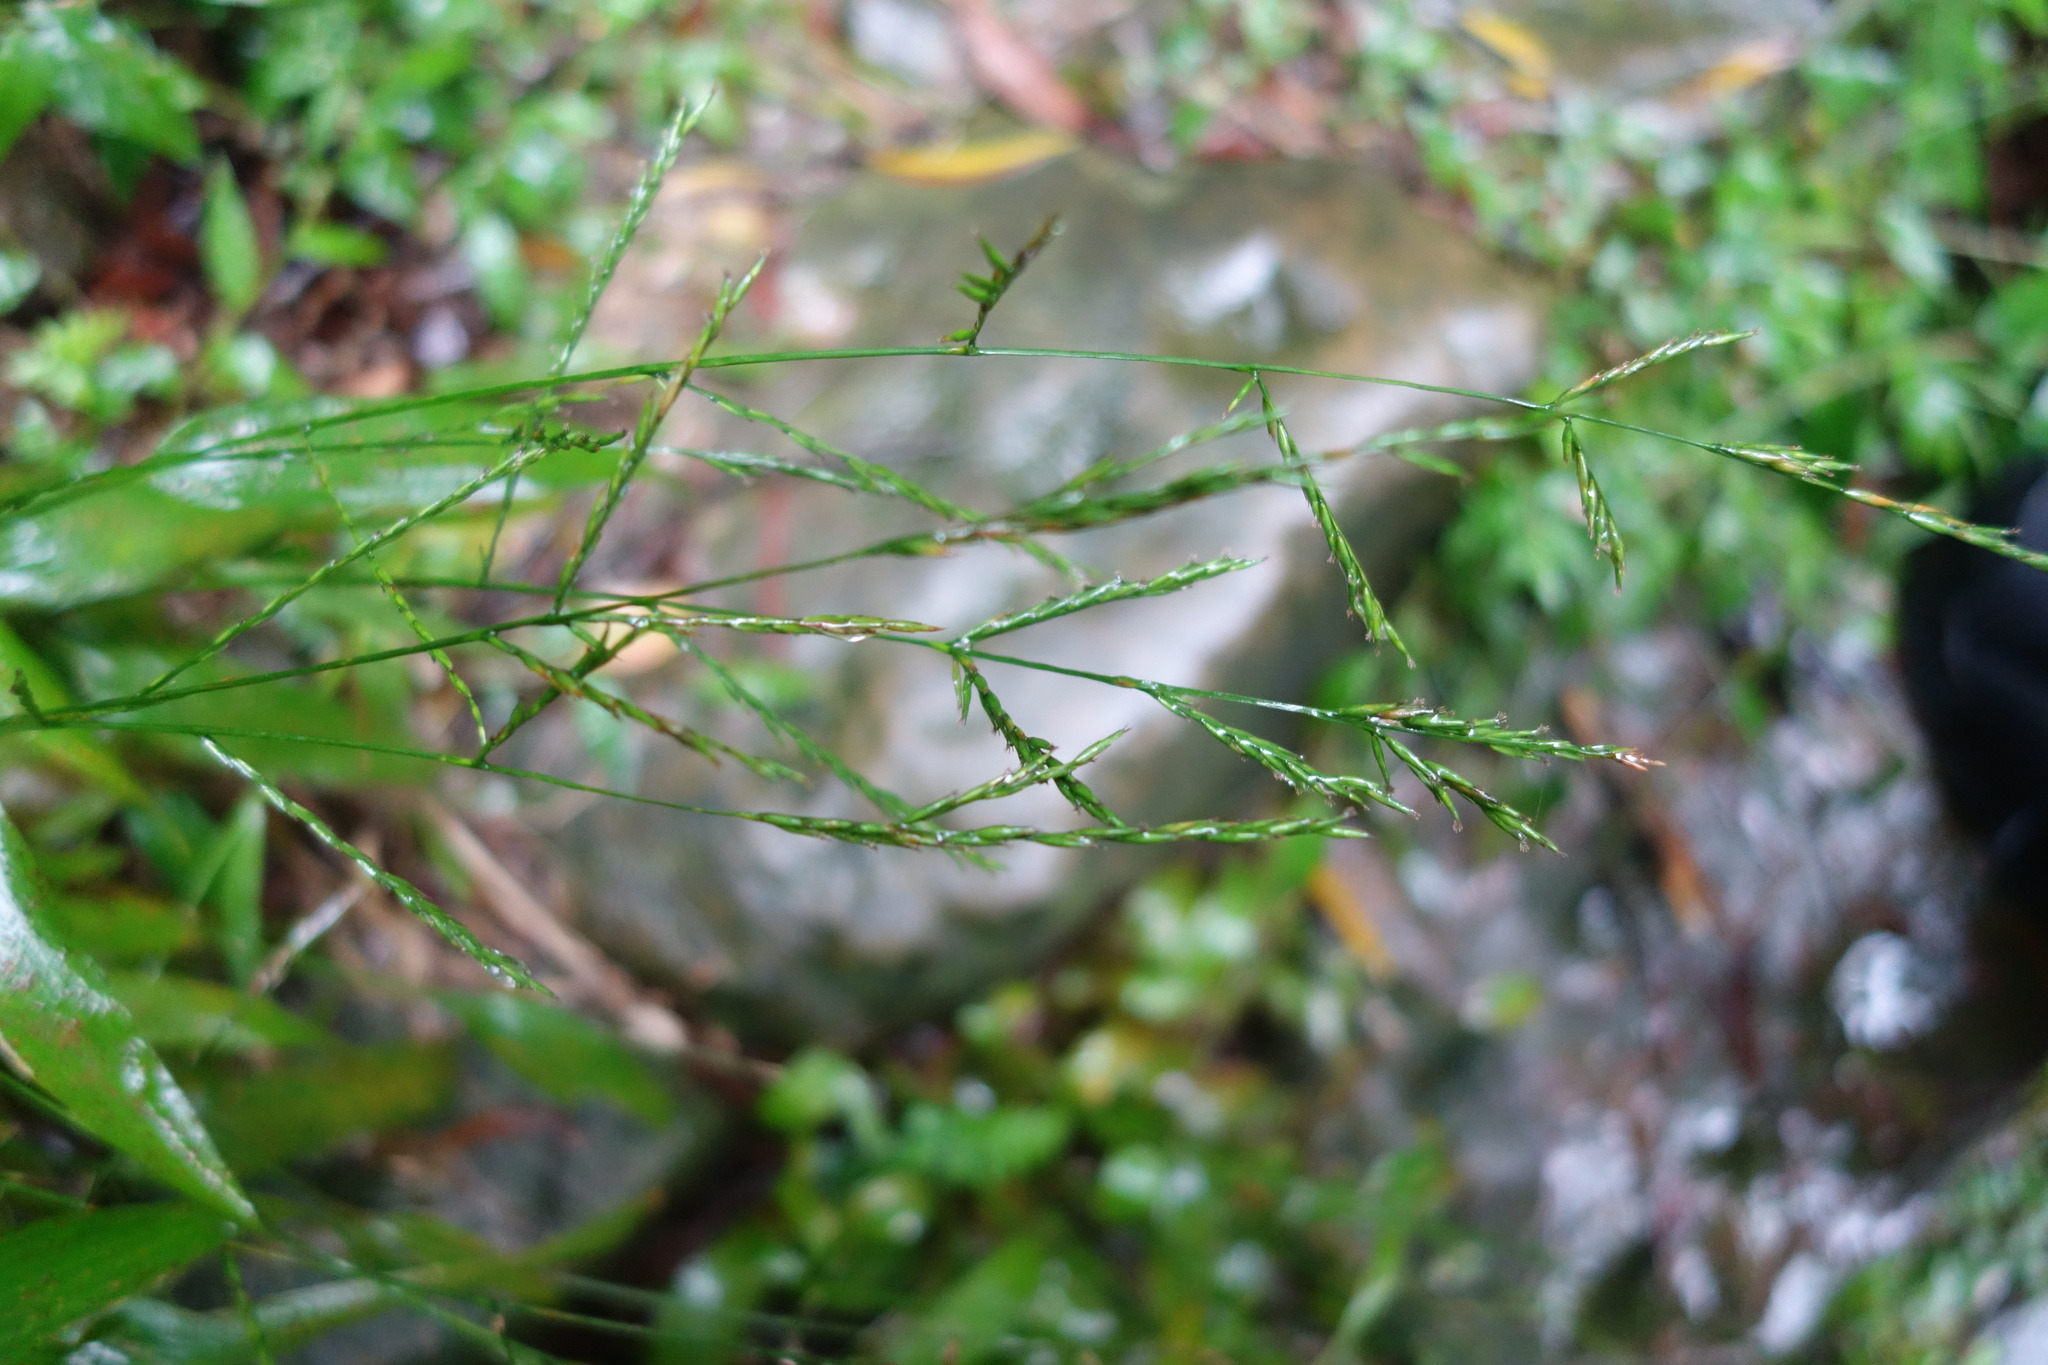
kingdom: Plantae
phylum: Tracheophyta
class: Liliopsida
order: Poales
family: Poaceae
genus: Lophatherum
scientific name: Lophatherum gracile
